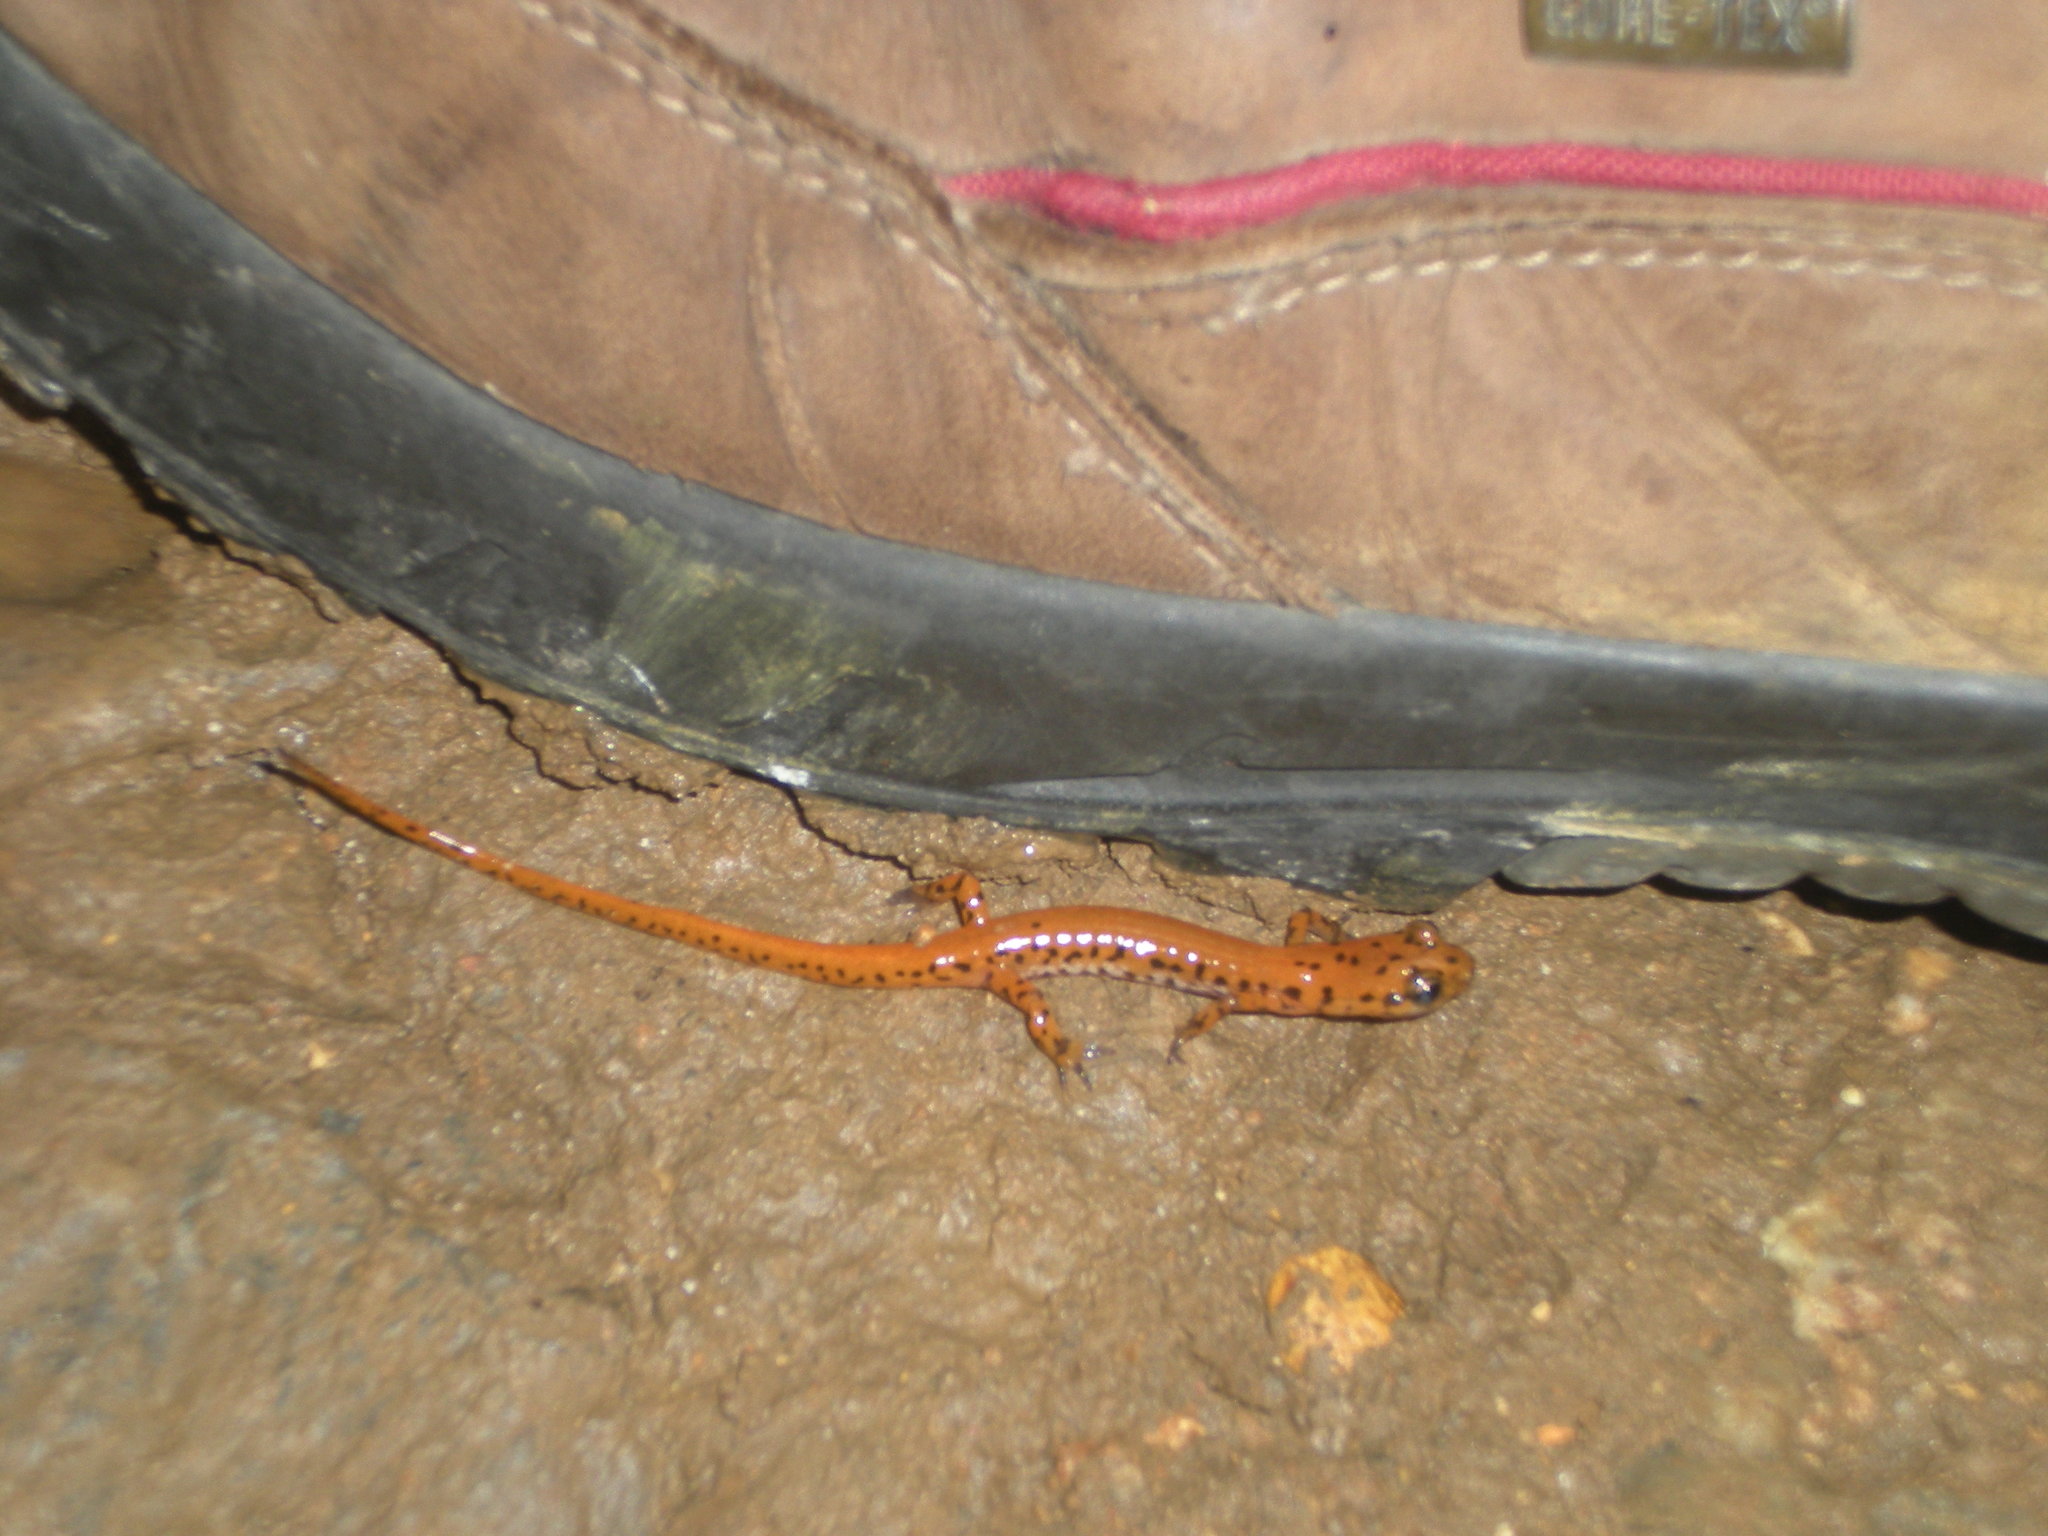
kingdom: Animalia
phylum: Chordata
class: Amphibia
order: Caudata
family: Plethodontidae
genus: Eurycea
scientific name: Eurycea lucifuga
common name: Cave salamander
